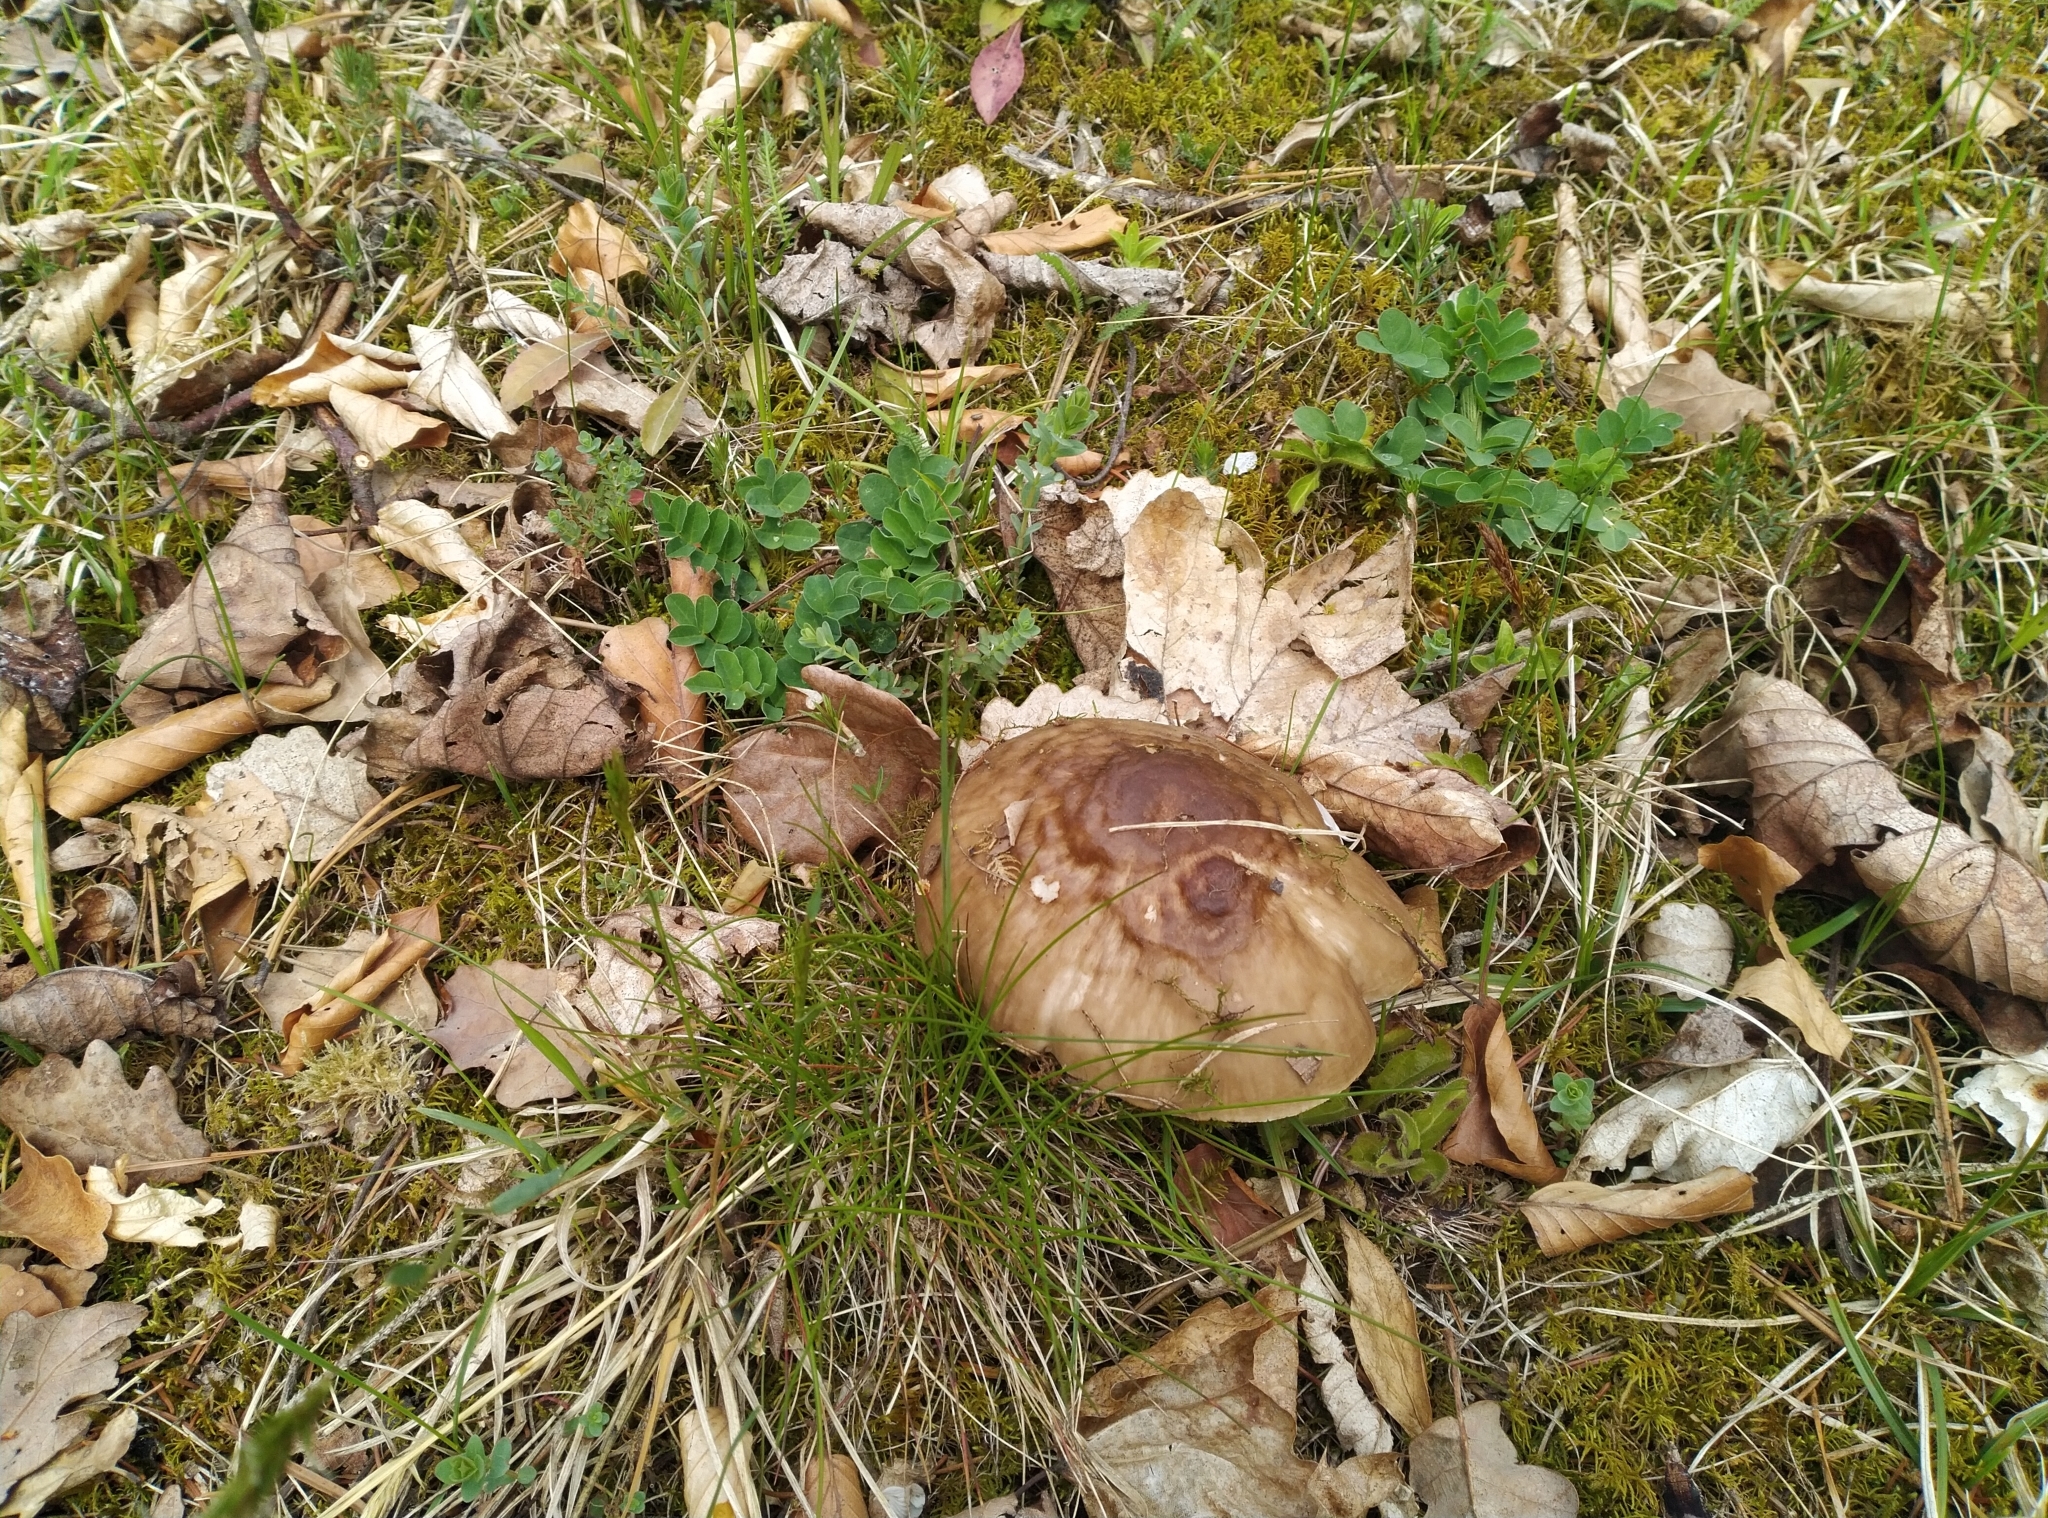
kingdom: Fungi
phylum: Basidiomycota
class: Agaricomycetes
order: Agaricales
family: Pluteaceae
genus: Pluteus
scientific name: Pluteus cervinus
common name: Deer shield
